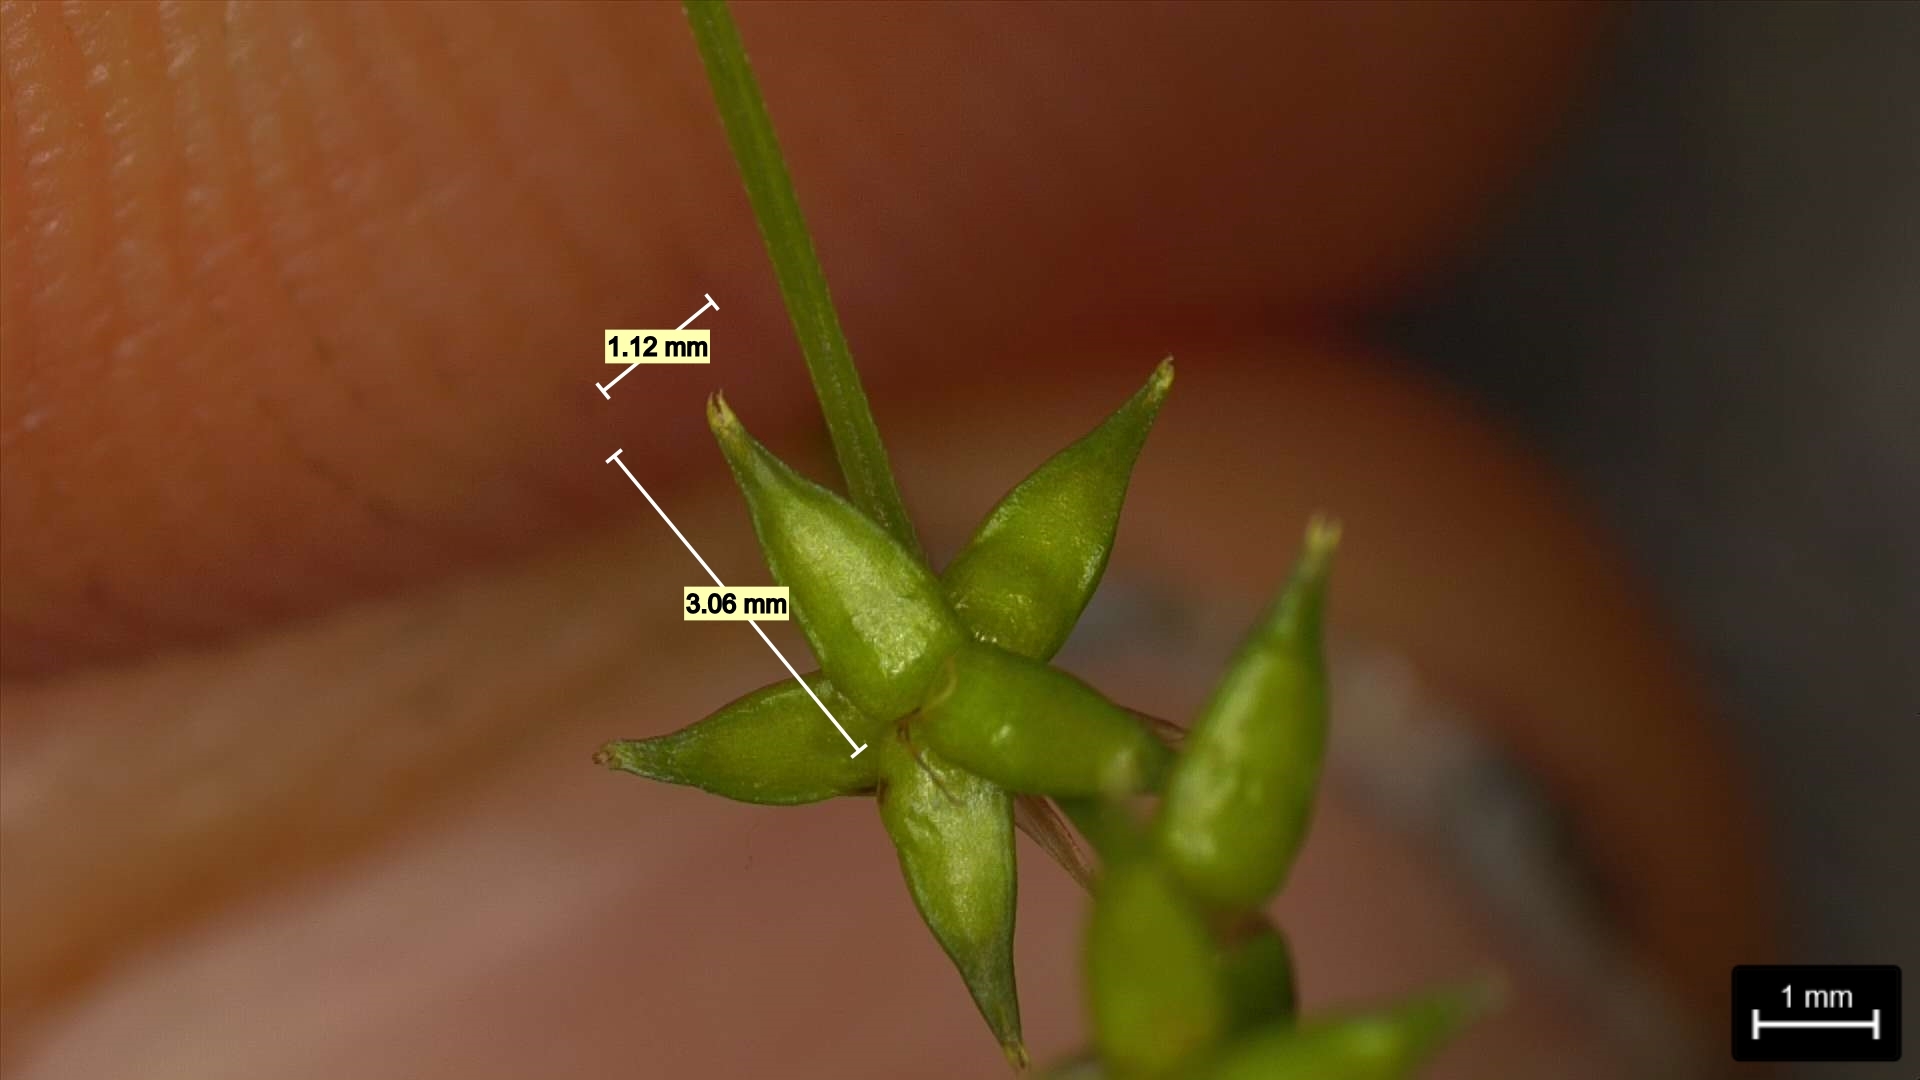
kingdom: Plantae
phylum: Tracheophyta
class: Liliopsida
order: Poales
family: Cyperaceae
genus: Carex
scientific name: Carex texensis
